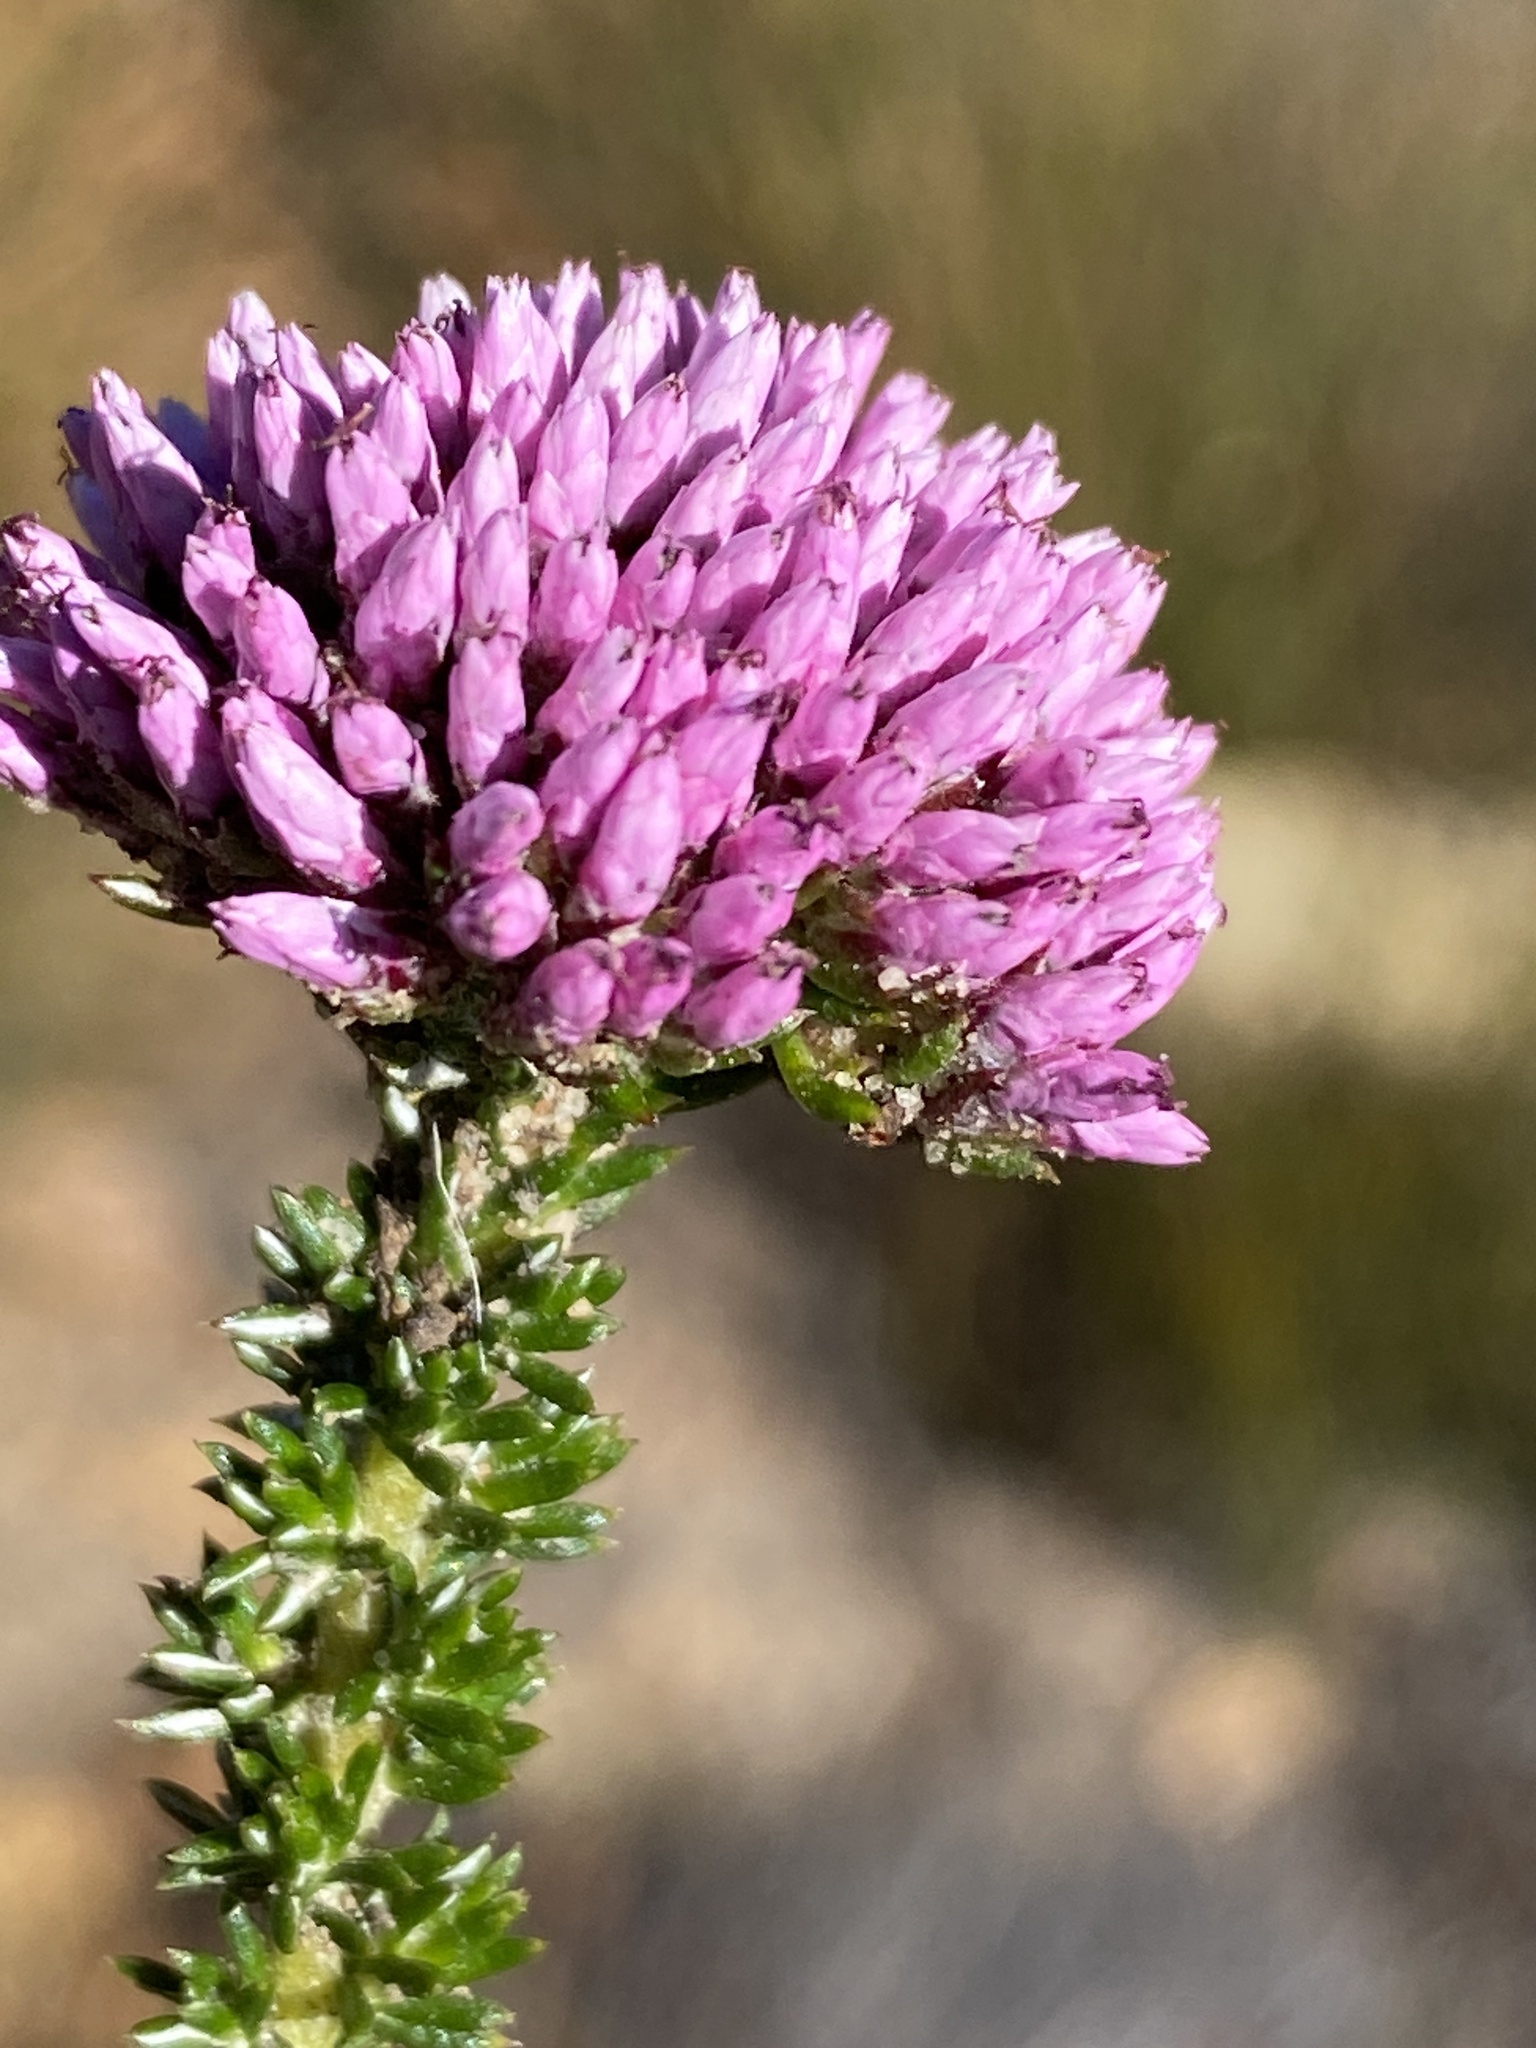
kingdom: Plantae
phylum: Tracheophyta
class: Magnoliopsida
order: Asterales
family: Asteraceae
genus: Metalasia
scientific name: Metalasia phillipsii
